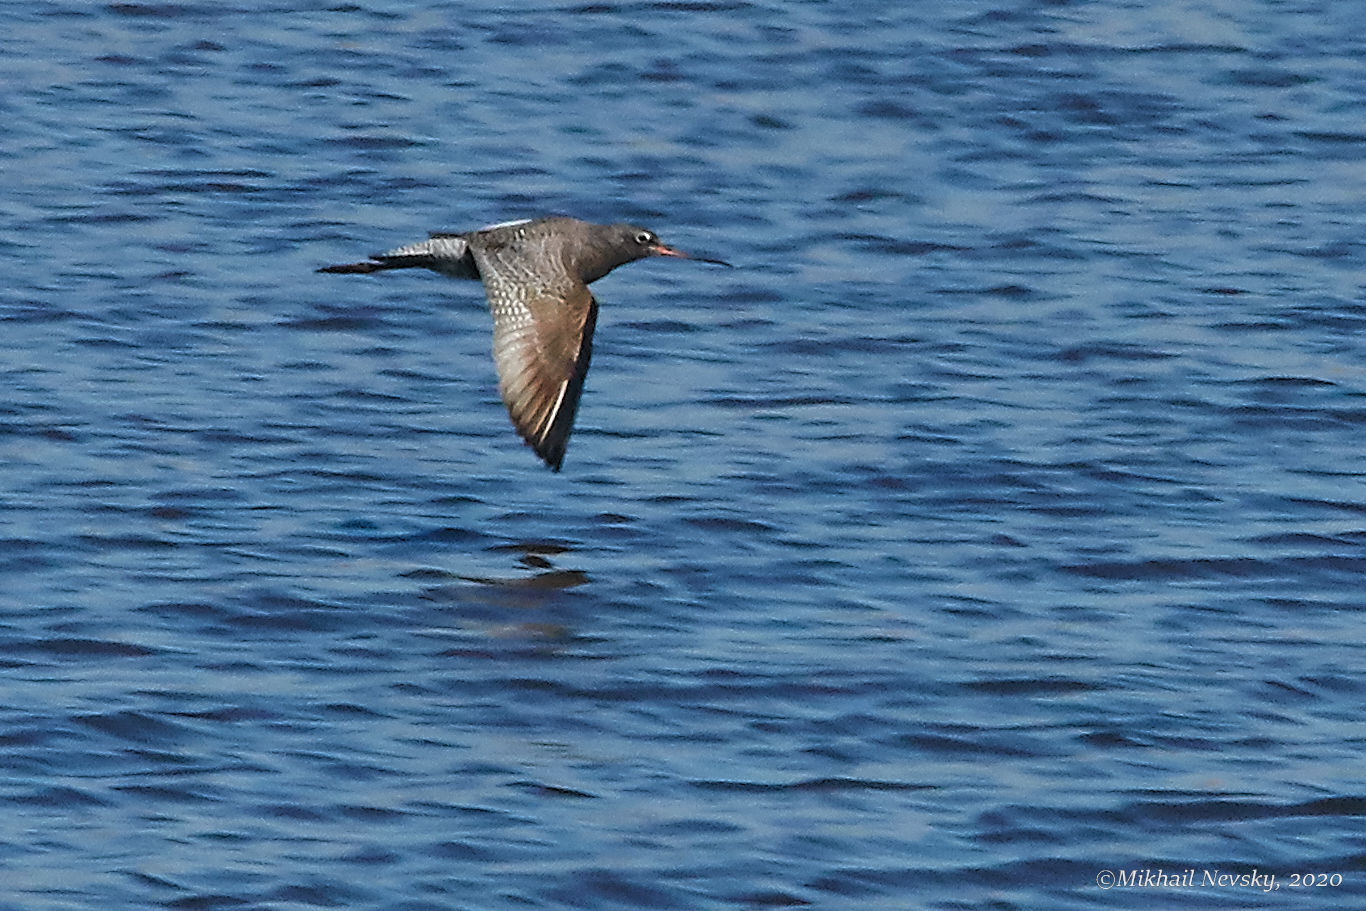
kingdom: Animalia
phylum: Chordata
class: Aves
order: Charadriiformes
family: Scolopacidae
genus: Tringa
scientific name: Tringa erythropus
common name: Spotted redshank
